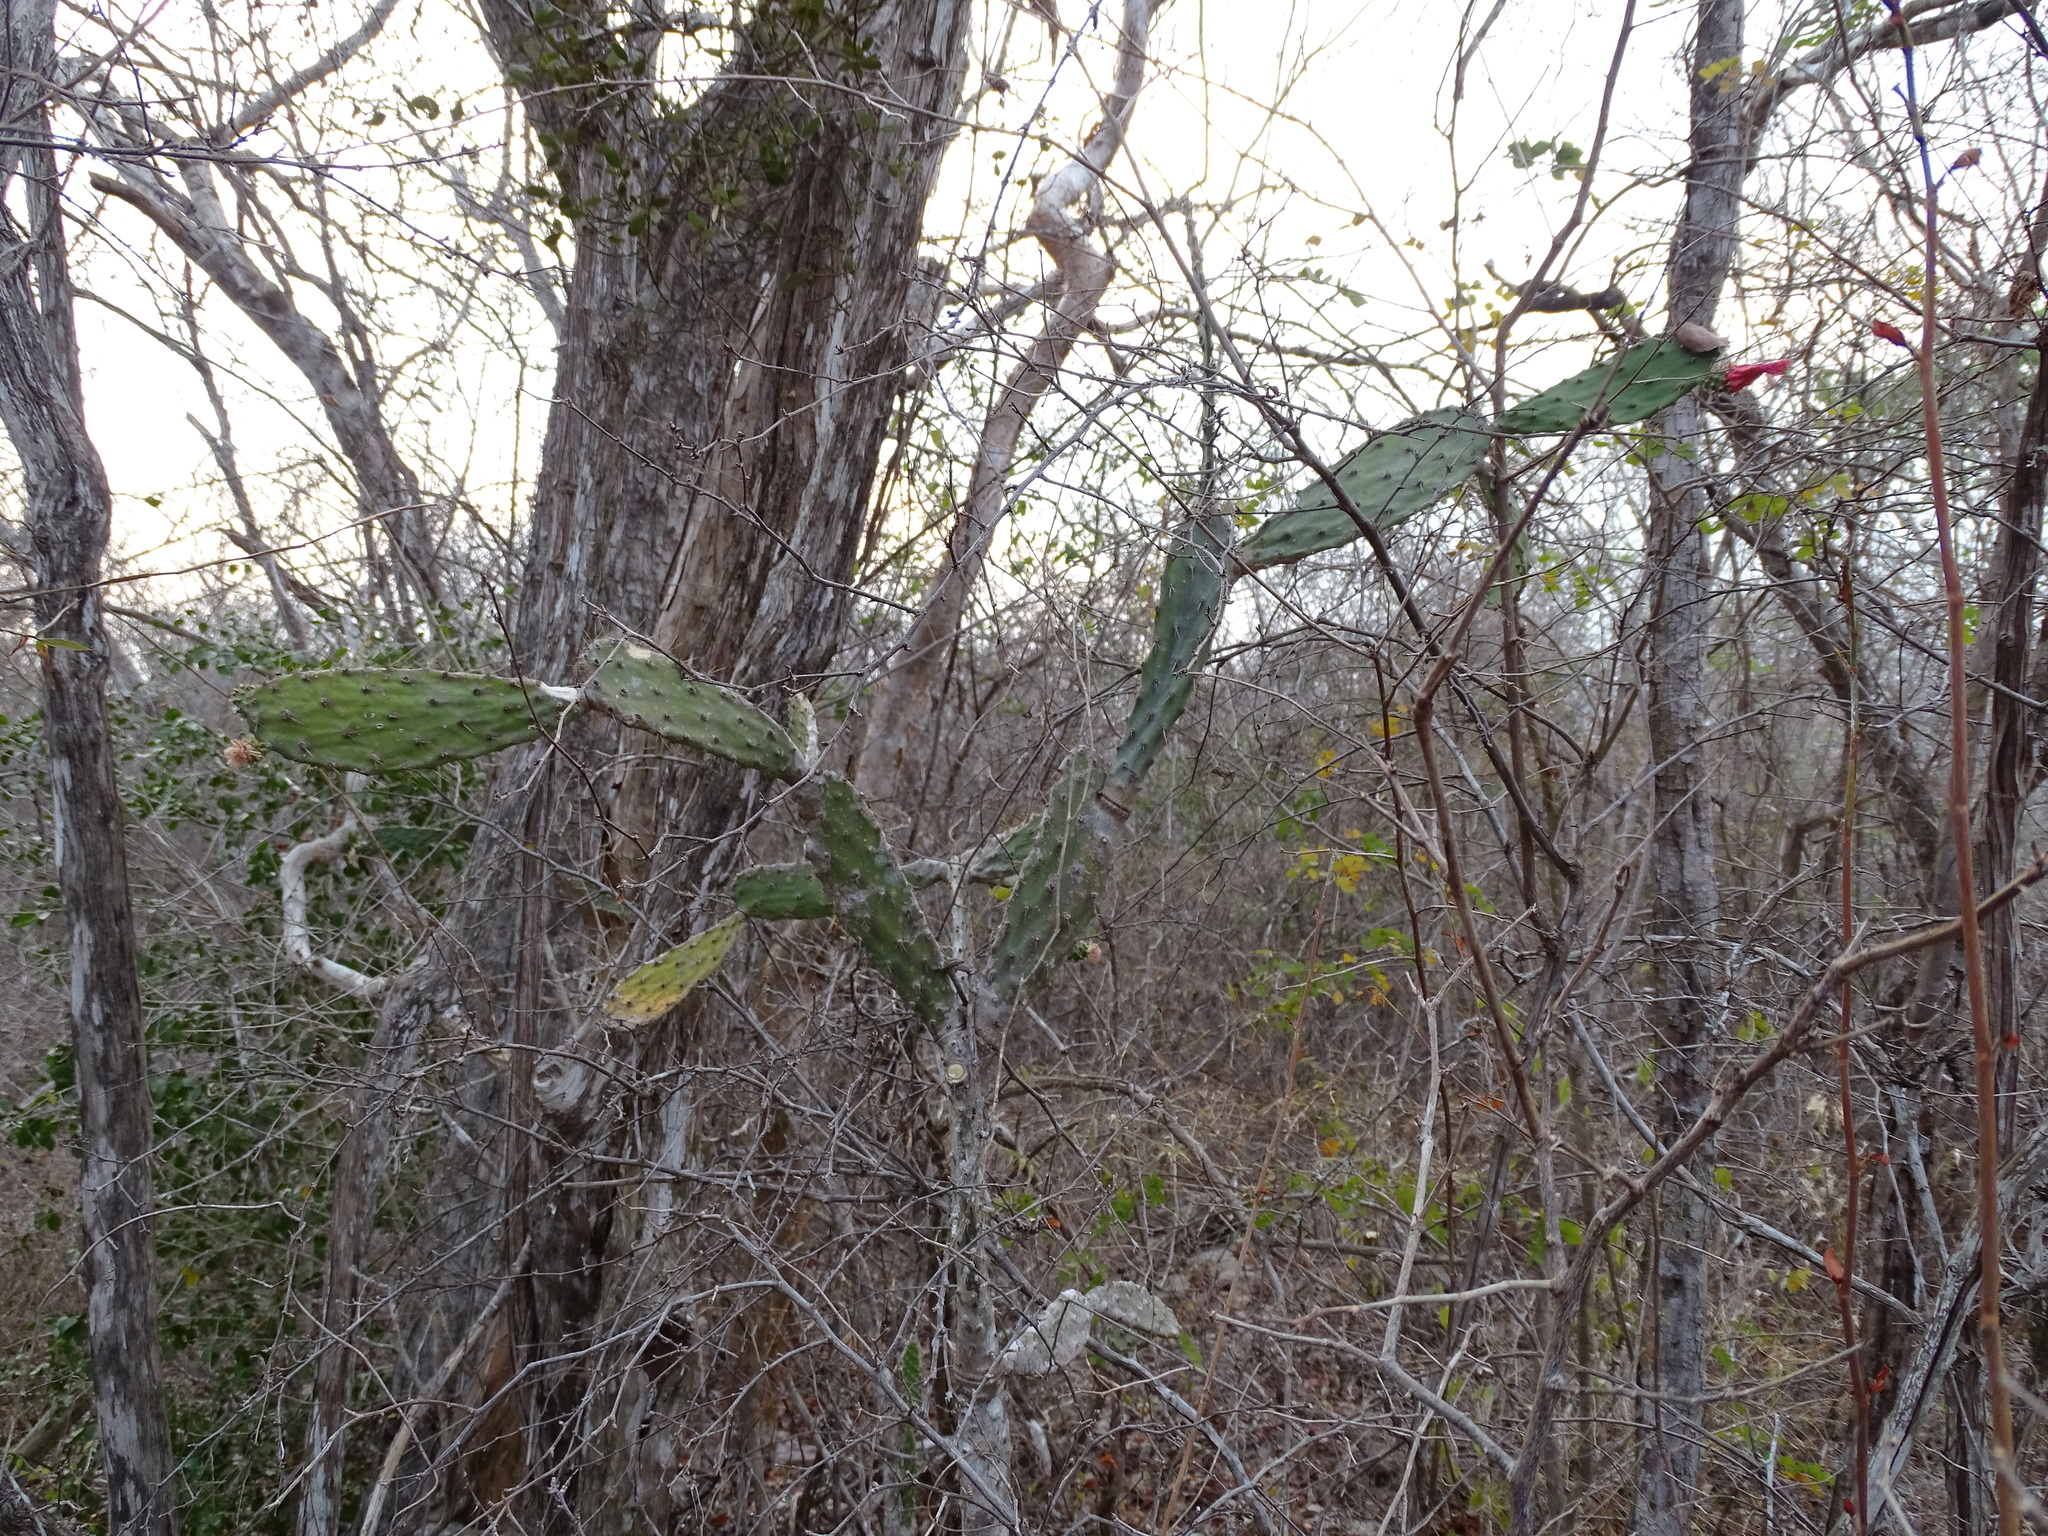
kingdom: Plantae
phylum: Tracheophyta
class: Magnoliopsida
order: Caryophyllales
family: Cactaceae
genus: Opuntia
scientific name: Opuntia inaperta
